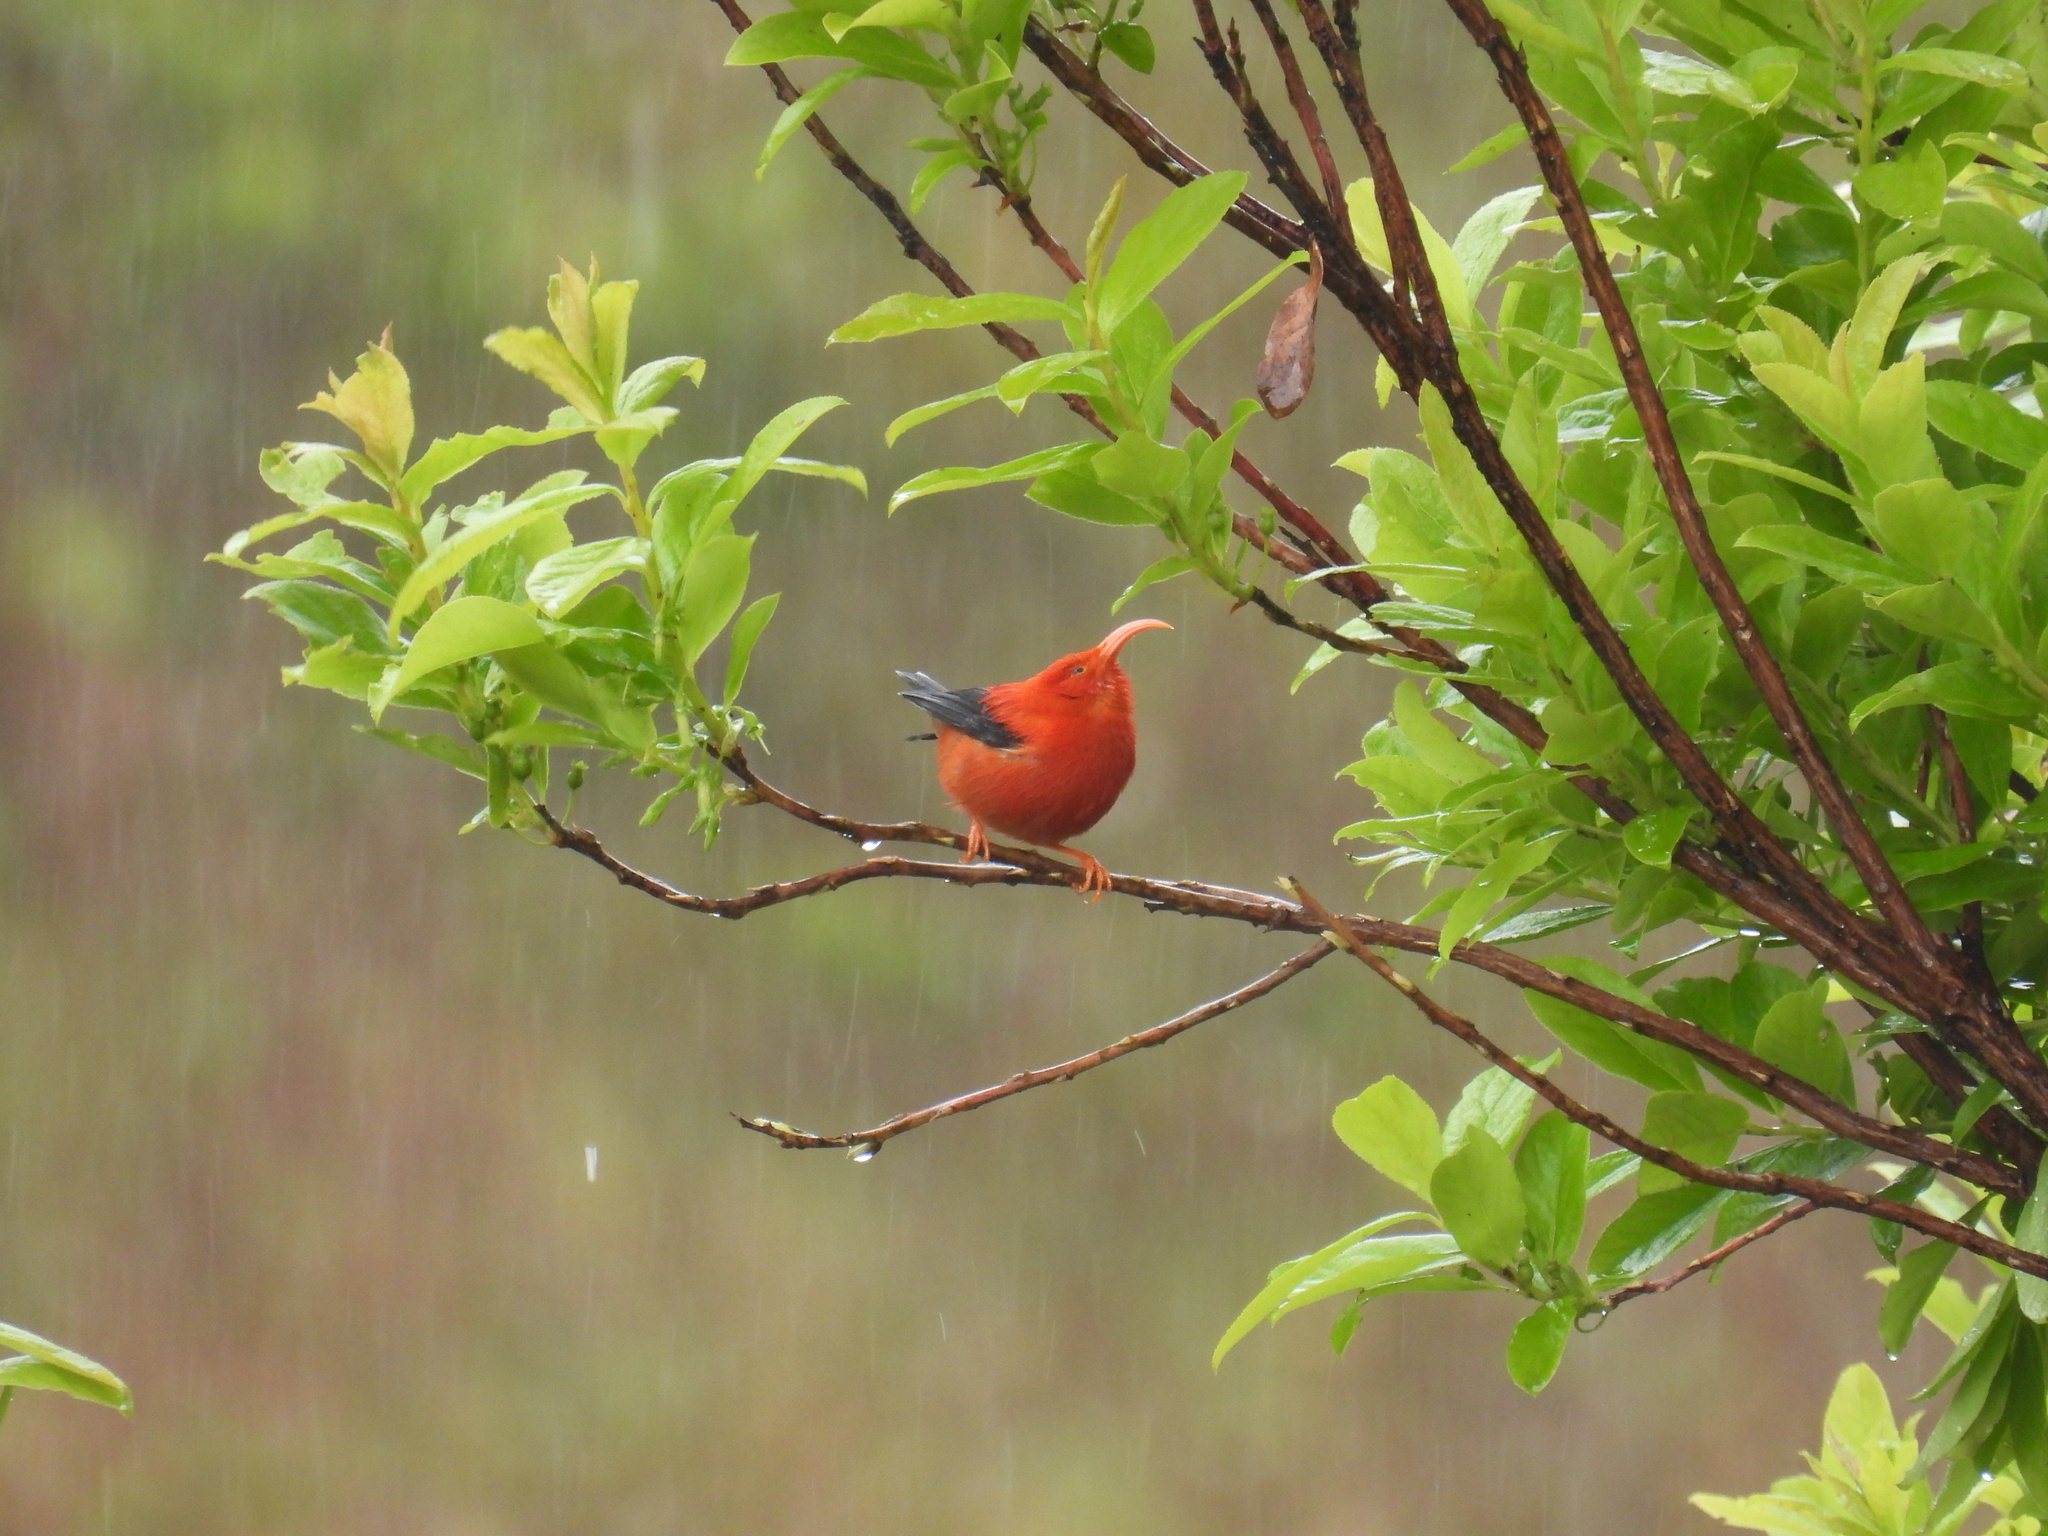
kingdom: Animalia
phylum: Chordata
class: Aves
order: Passeriformes
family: Fringillidae
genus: Vestiaria
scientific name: Vestiaria coccinea
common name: Iiwi
